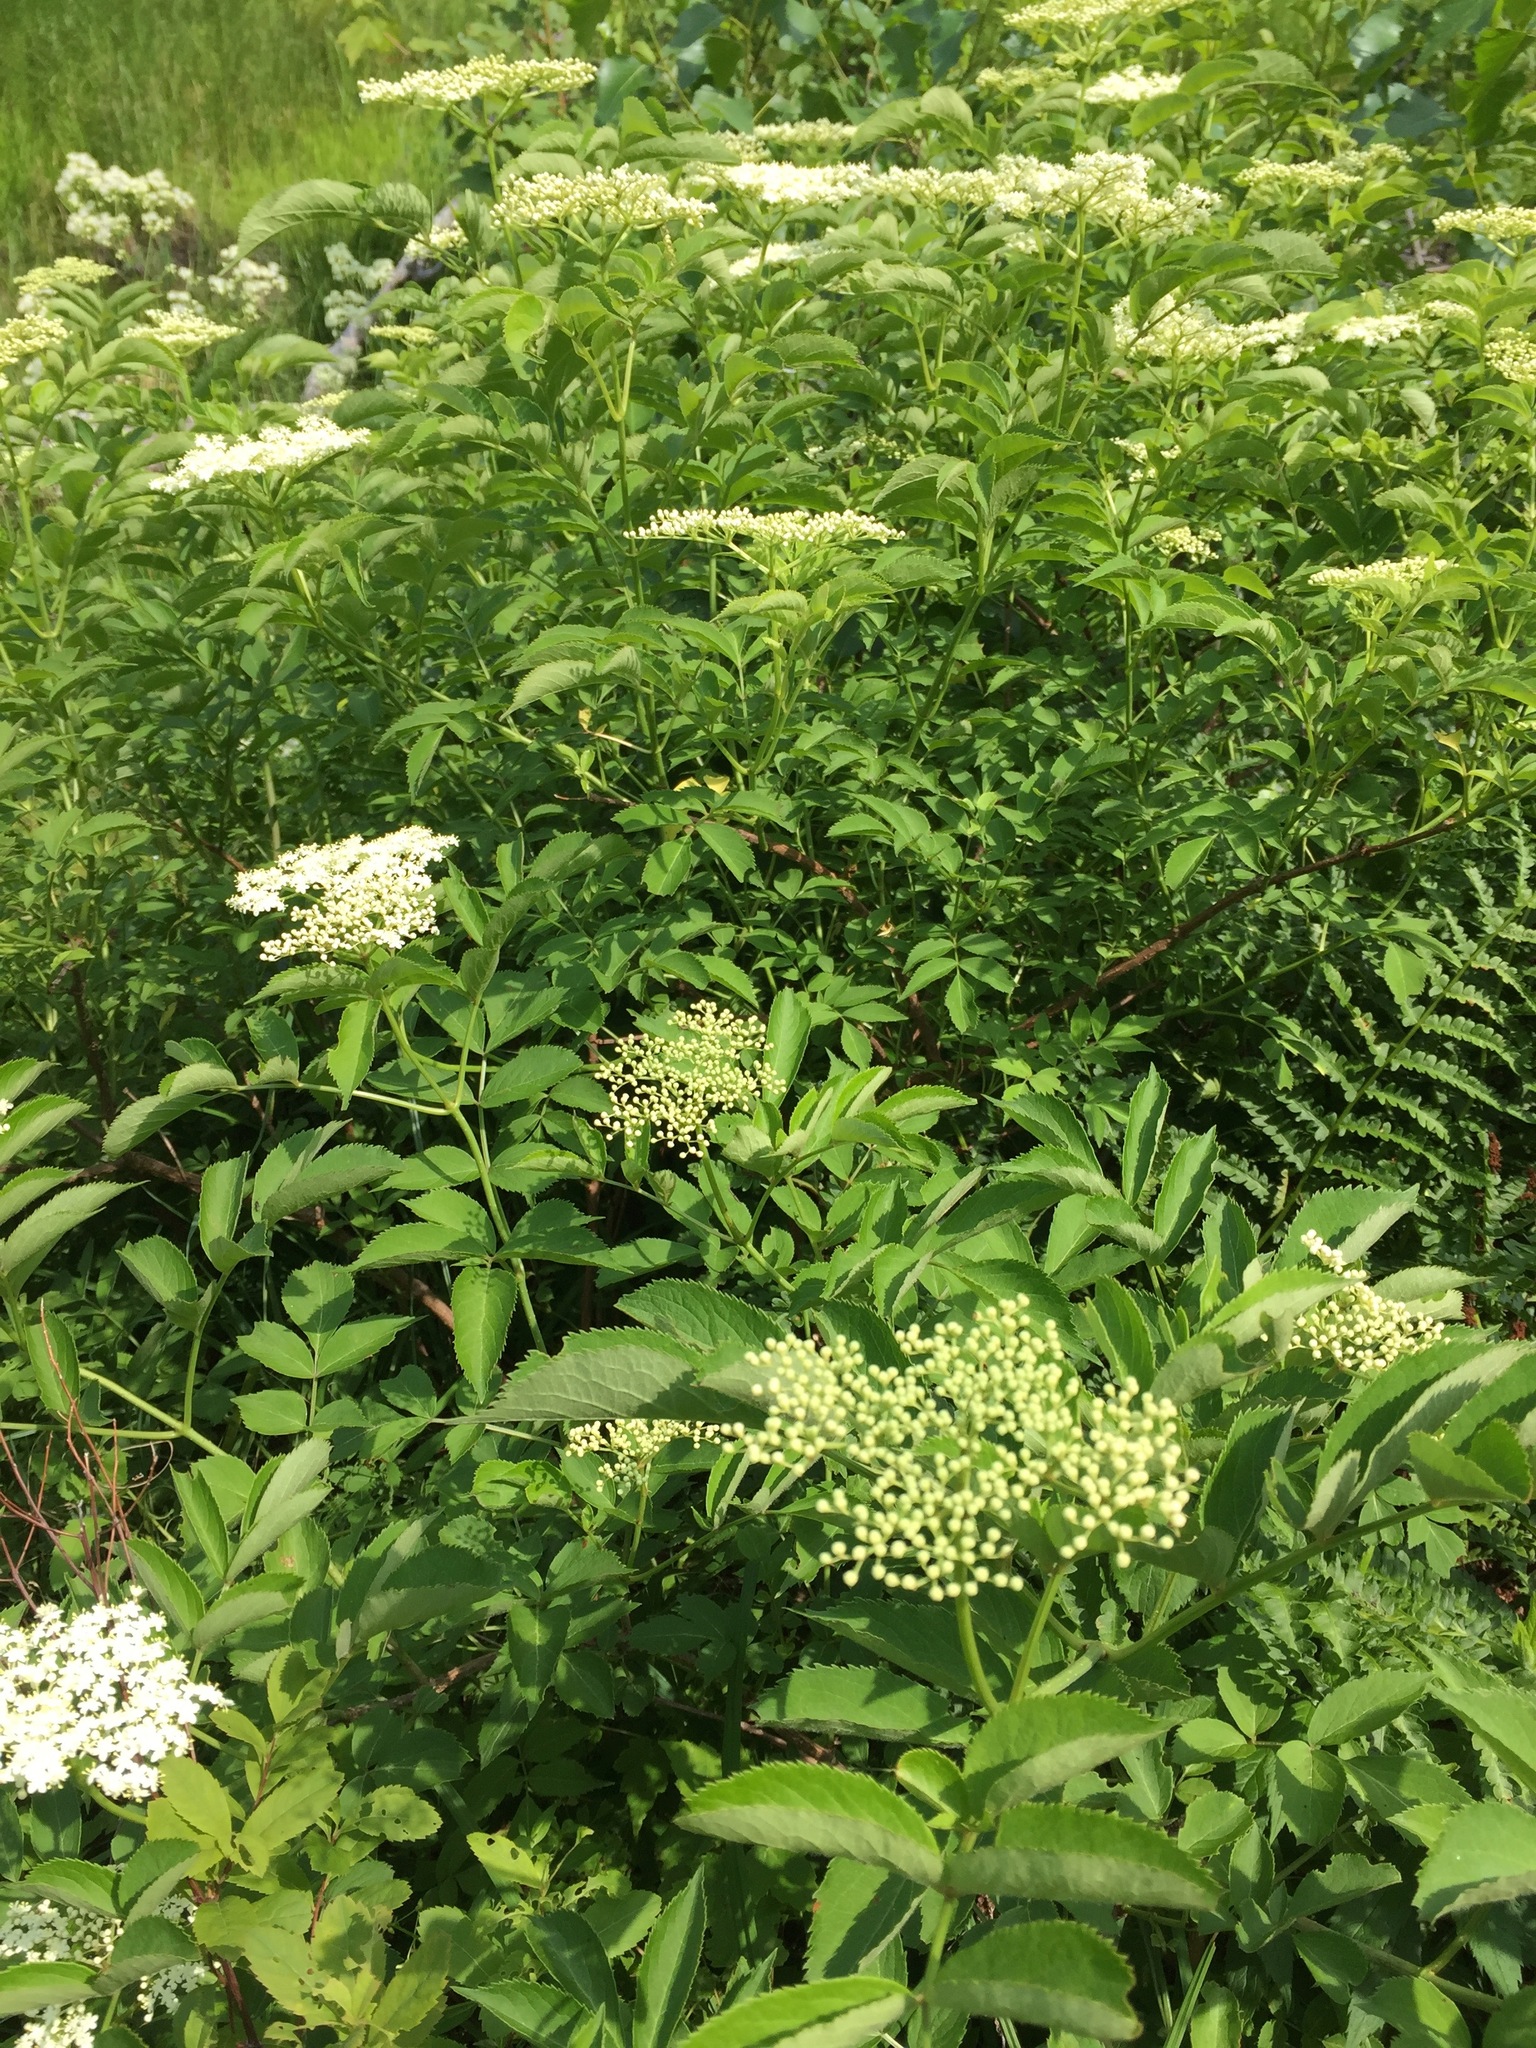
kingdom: Plantae
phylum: Tracheophyta
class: Magnoliopsida
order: Dipsacales
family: Viburnaceae
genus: Sambucus
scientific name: Sambucus canadensis
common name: American elder
